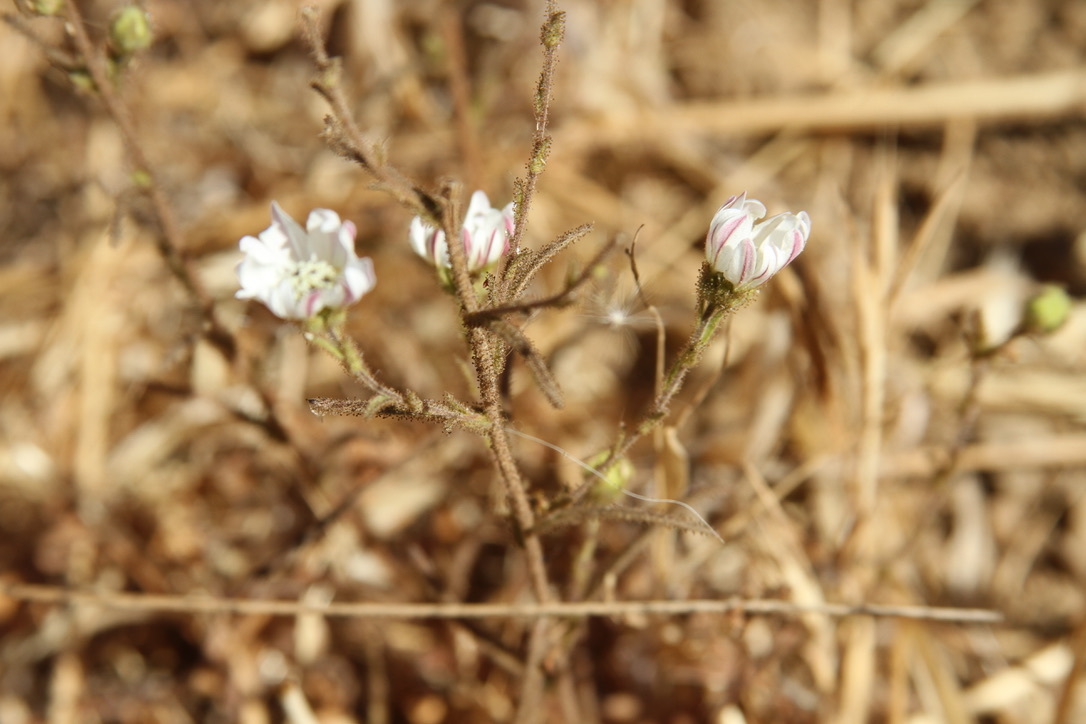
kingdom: Plantae
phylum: Tracheophyta
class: Magnoliopsida
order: Asterales
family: Asteraceae
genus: Hemizonia
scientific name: Hemizonia congesta
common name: Hayfield tarweed
